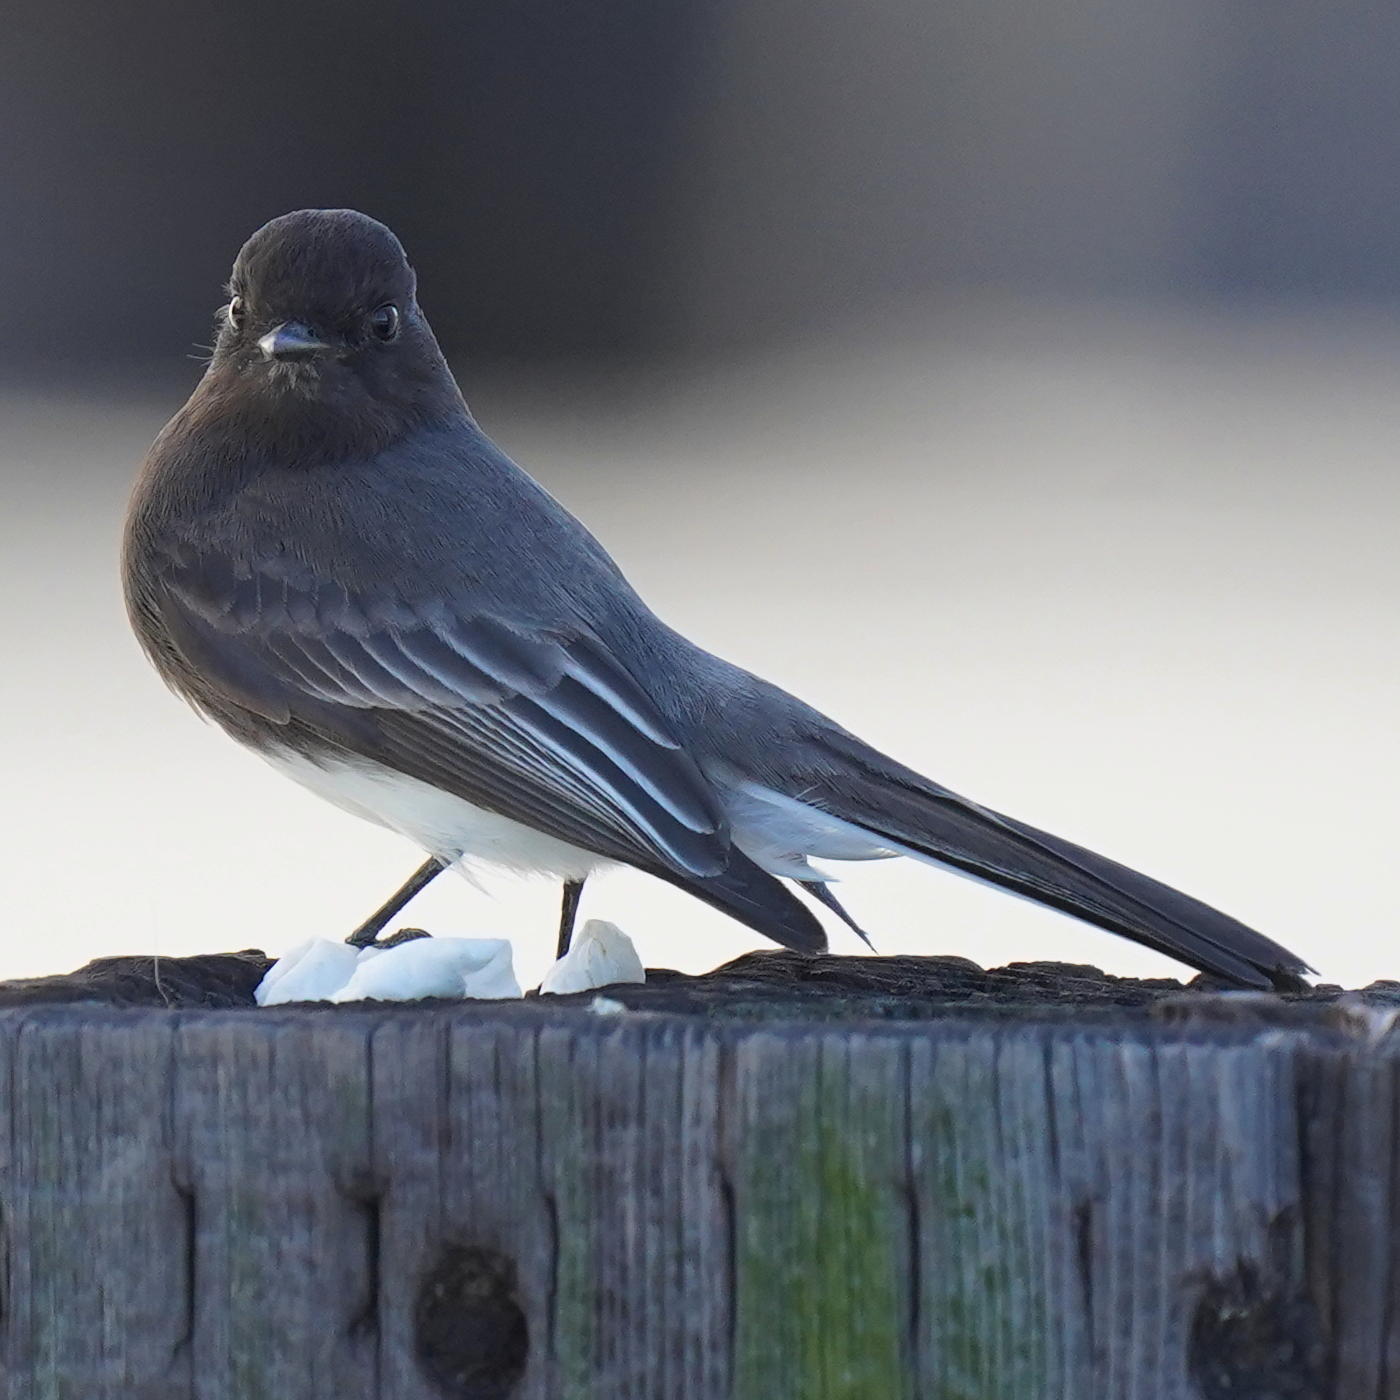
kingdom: Animalia
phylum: Chordata
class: Aves
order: Passeriformes
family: Tyrannidae
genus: Sayornis
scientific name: Sayornis nigricans
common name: Black phoebe
